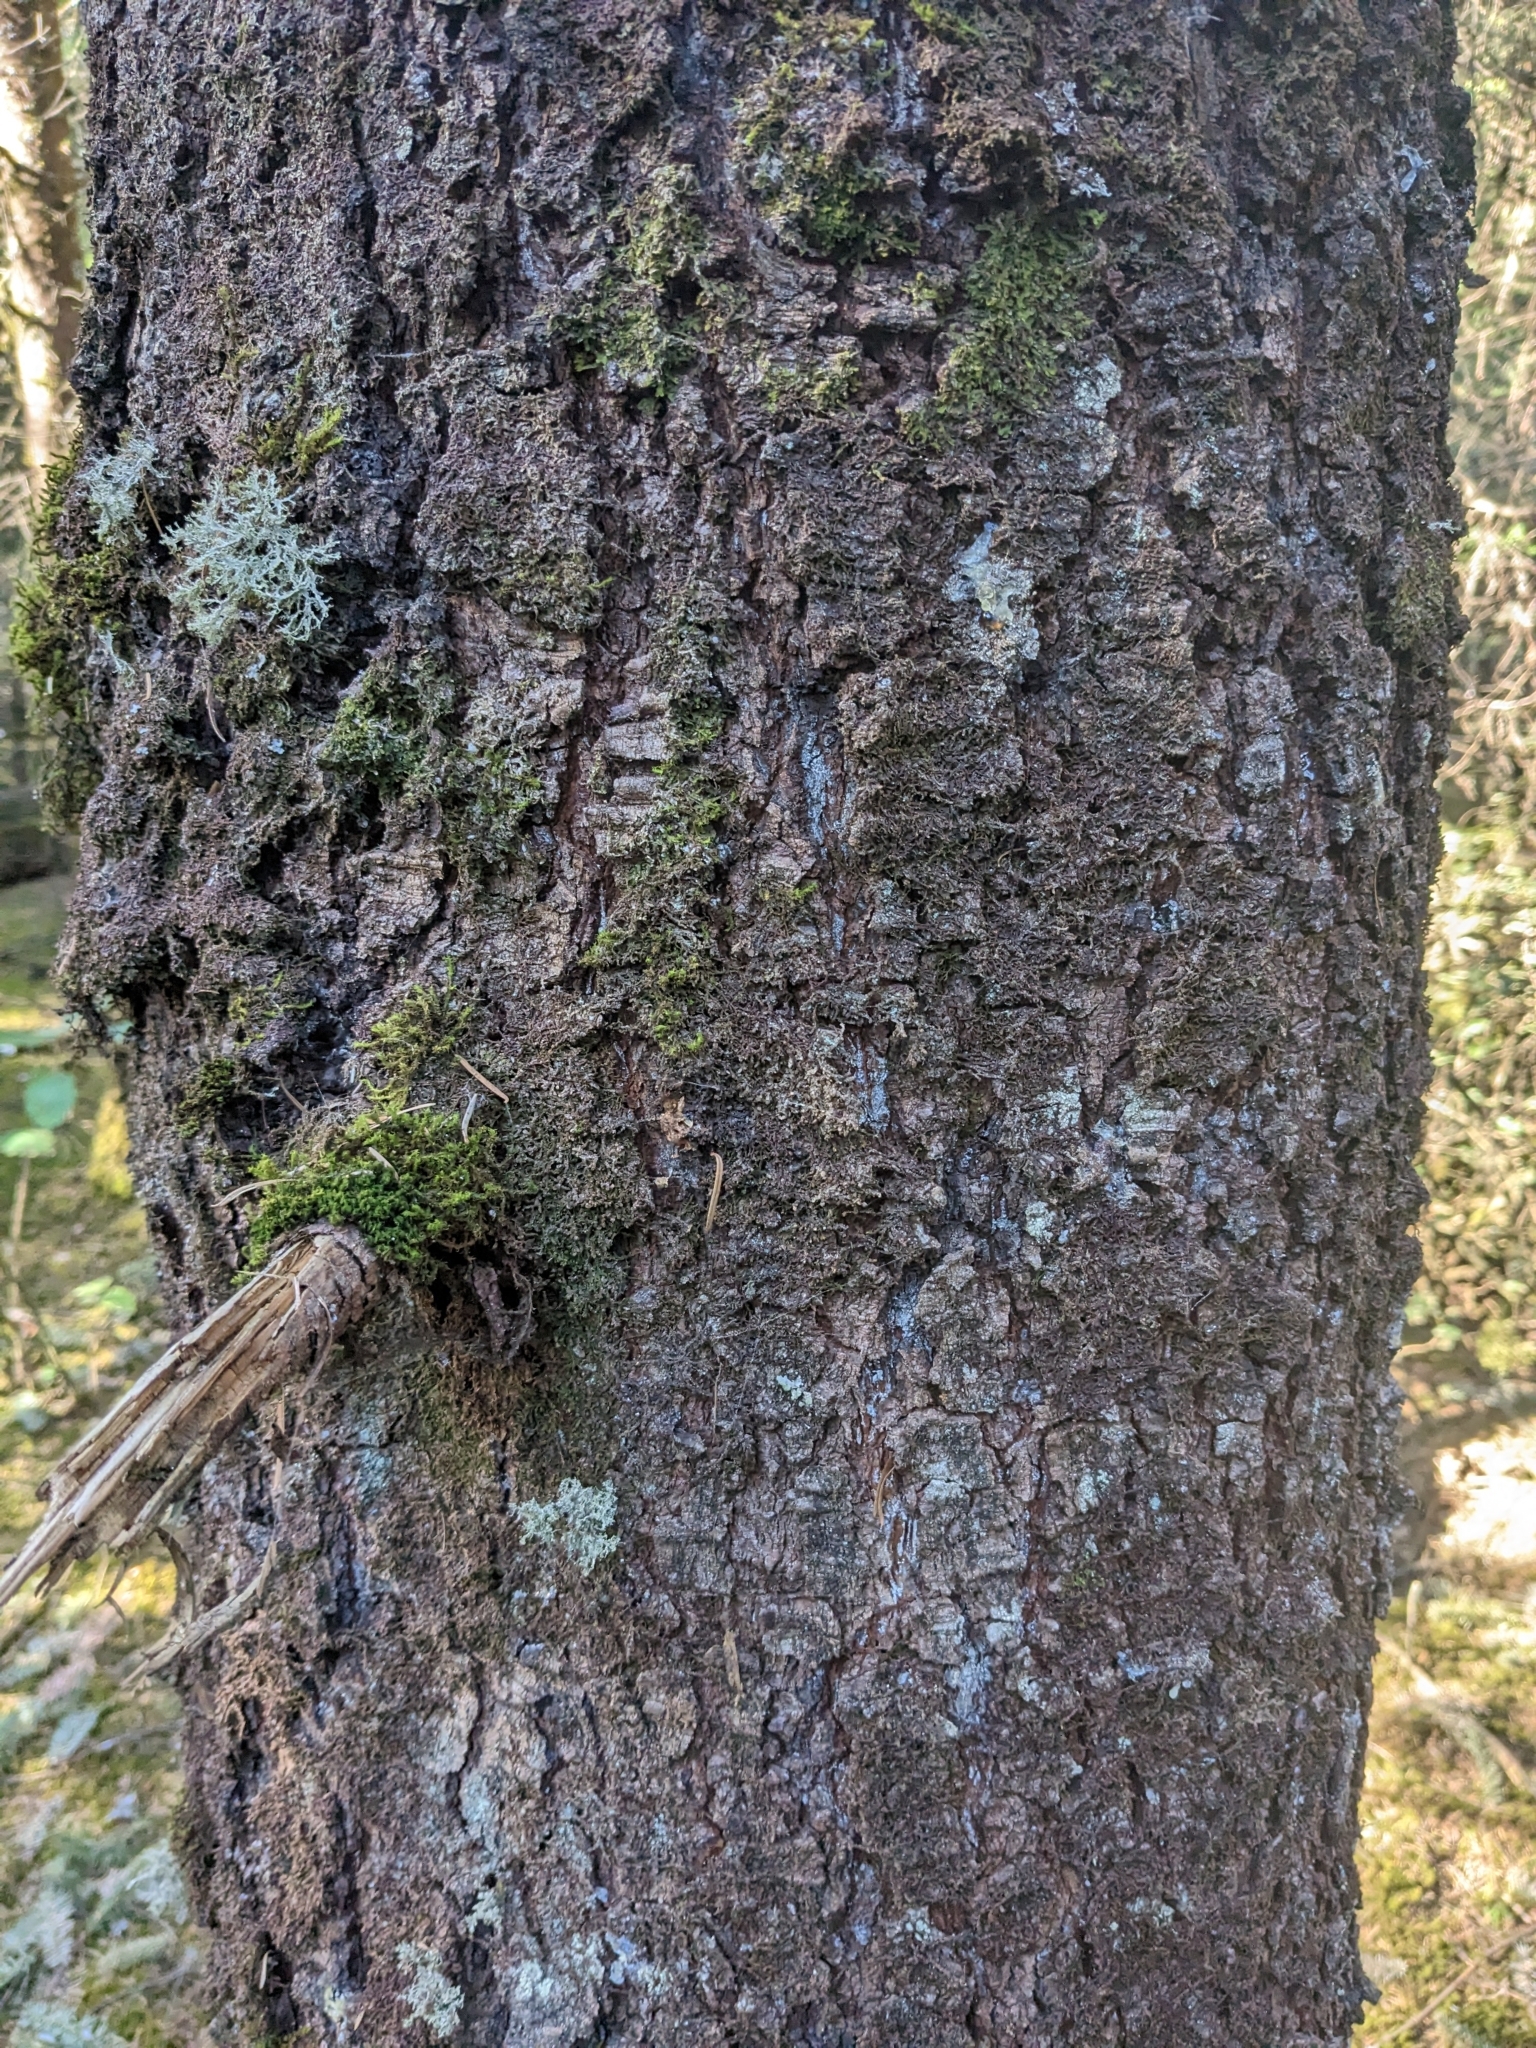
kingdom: Plantae
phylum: Tracheophyta
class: Pinopsida
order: Pinales
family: Pinaceae
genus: Abies
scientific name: Abies religiosa
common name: Sacred fir
